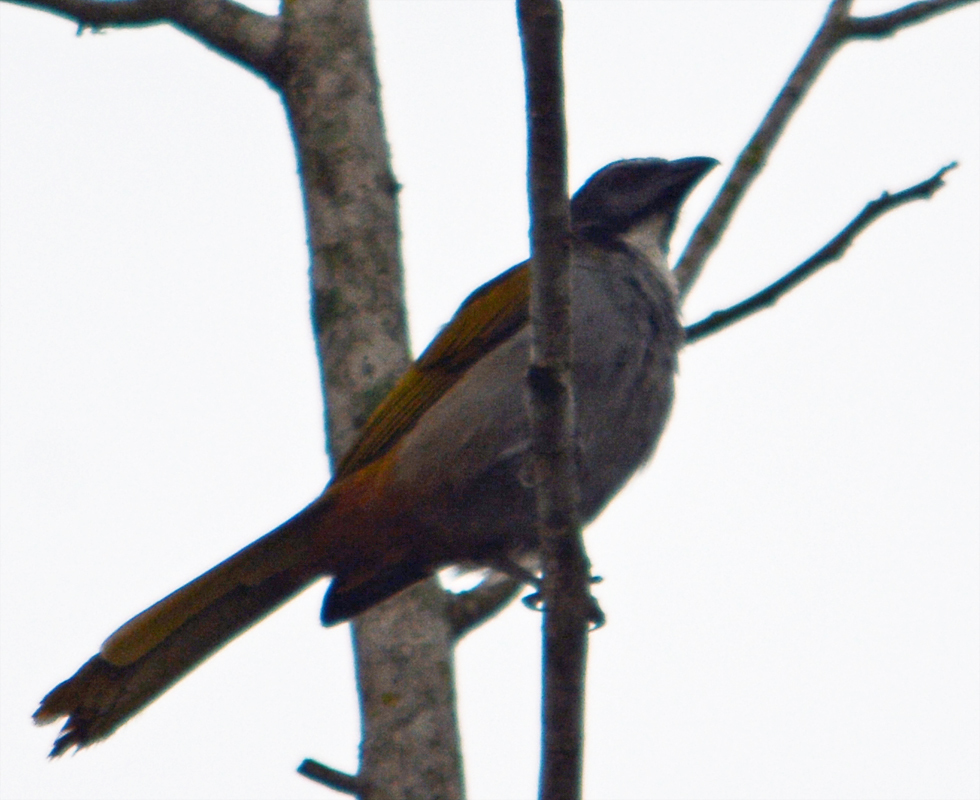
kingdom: Animalia
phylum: Chordata
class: Aves
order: Passeriformes
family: Thraupidae
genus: Saltator
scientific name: Saltator atriceps
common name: Black-headed saltator
